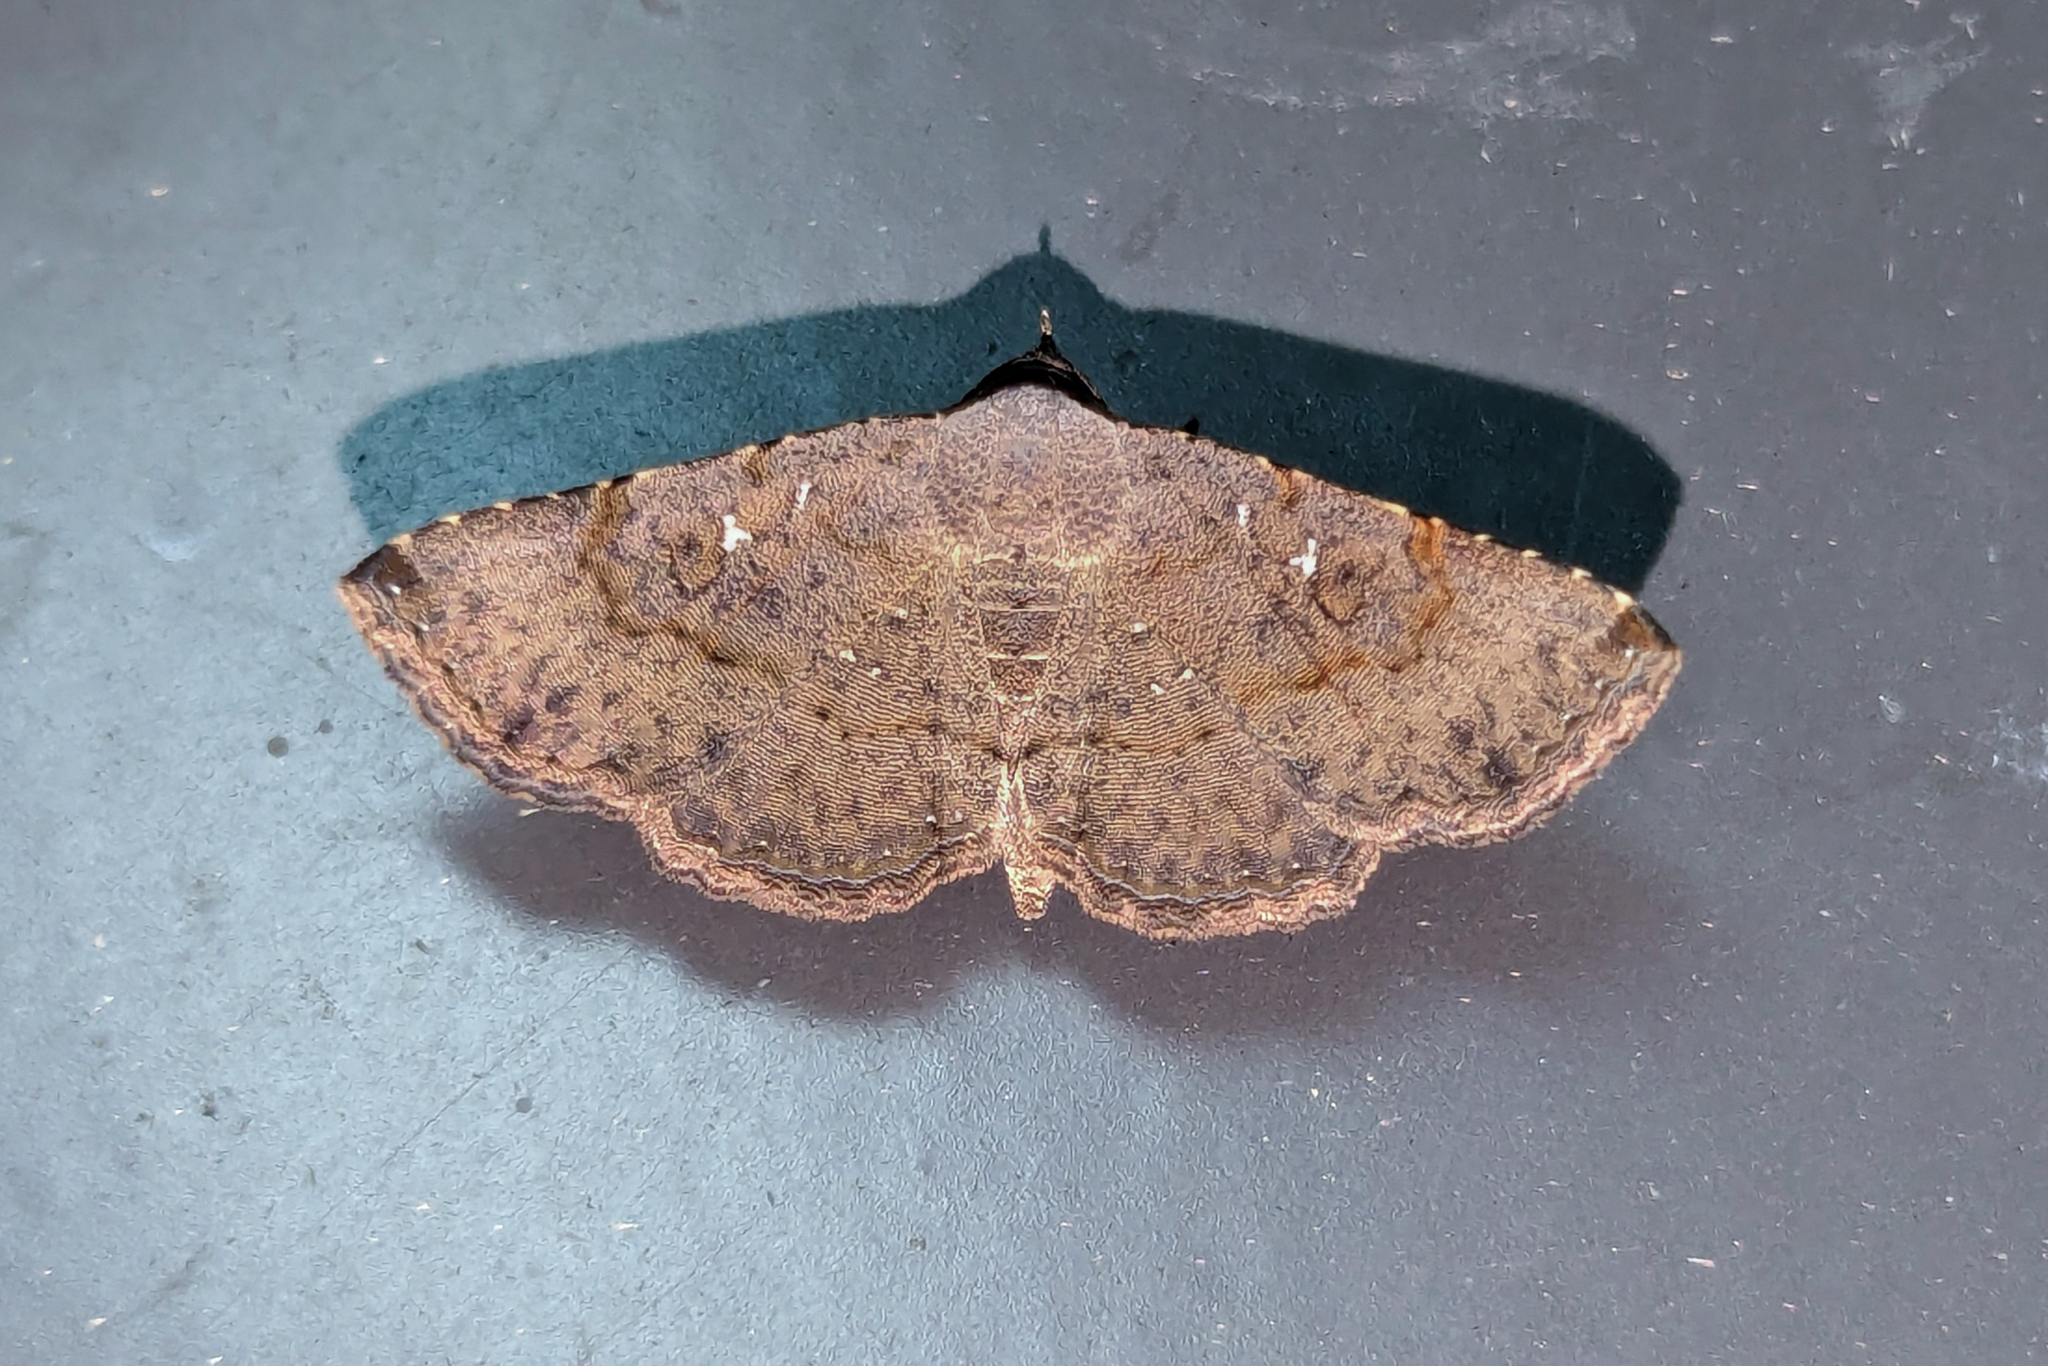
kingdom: Animalia
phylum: Arthropoda
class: Insecta
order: Lepidoptera
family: Erebidae
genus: Rhesala
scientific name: Rhesala imparata
